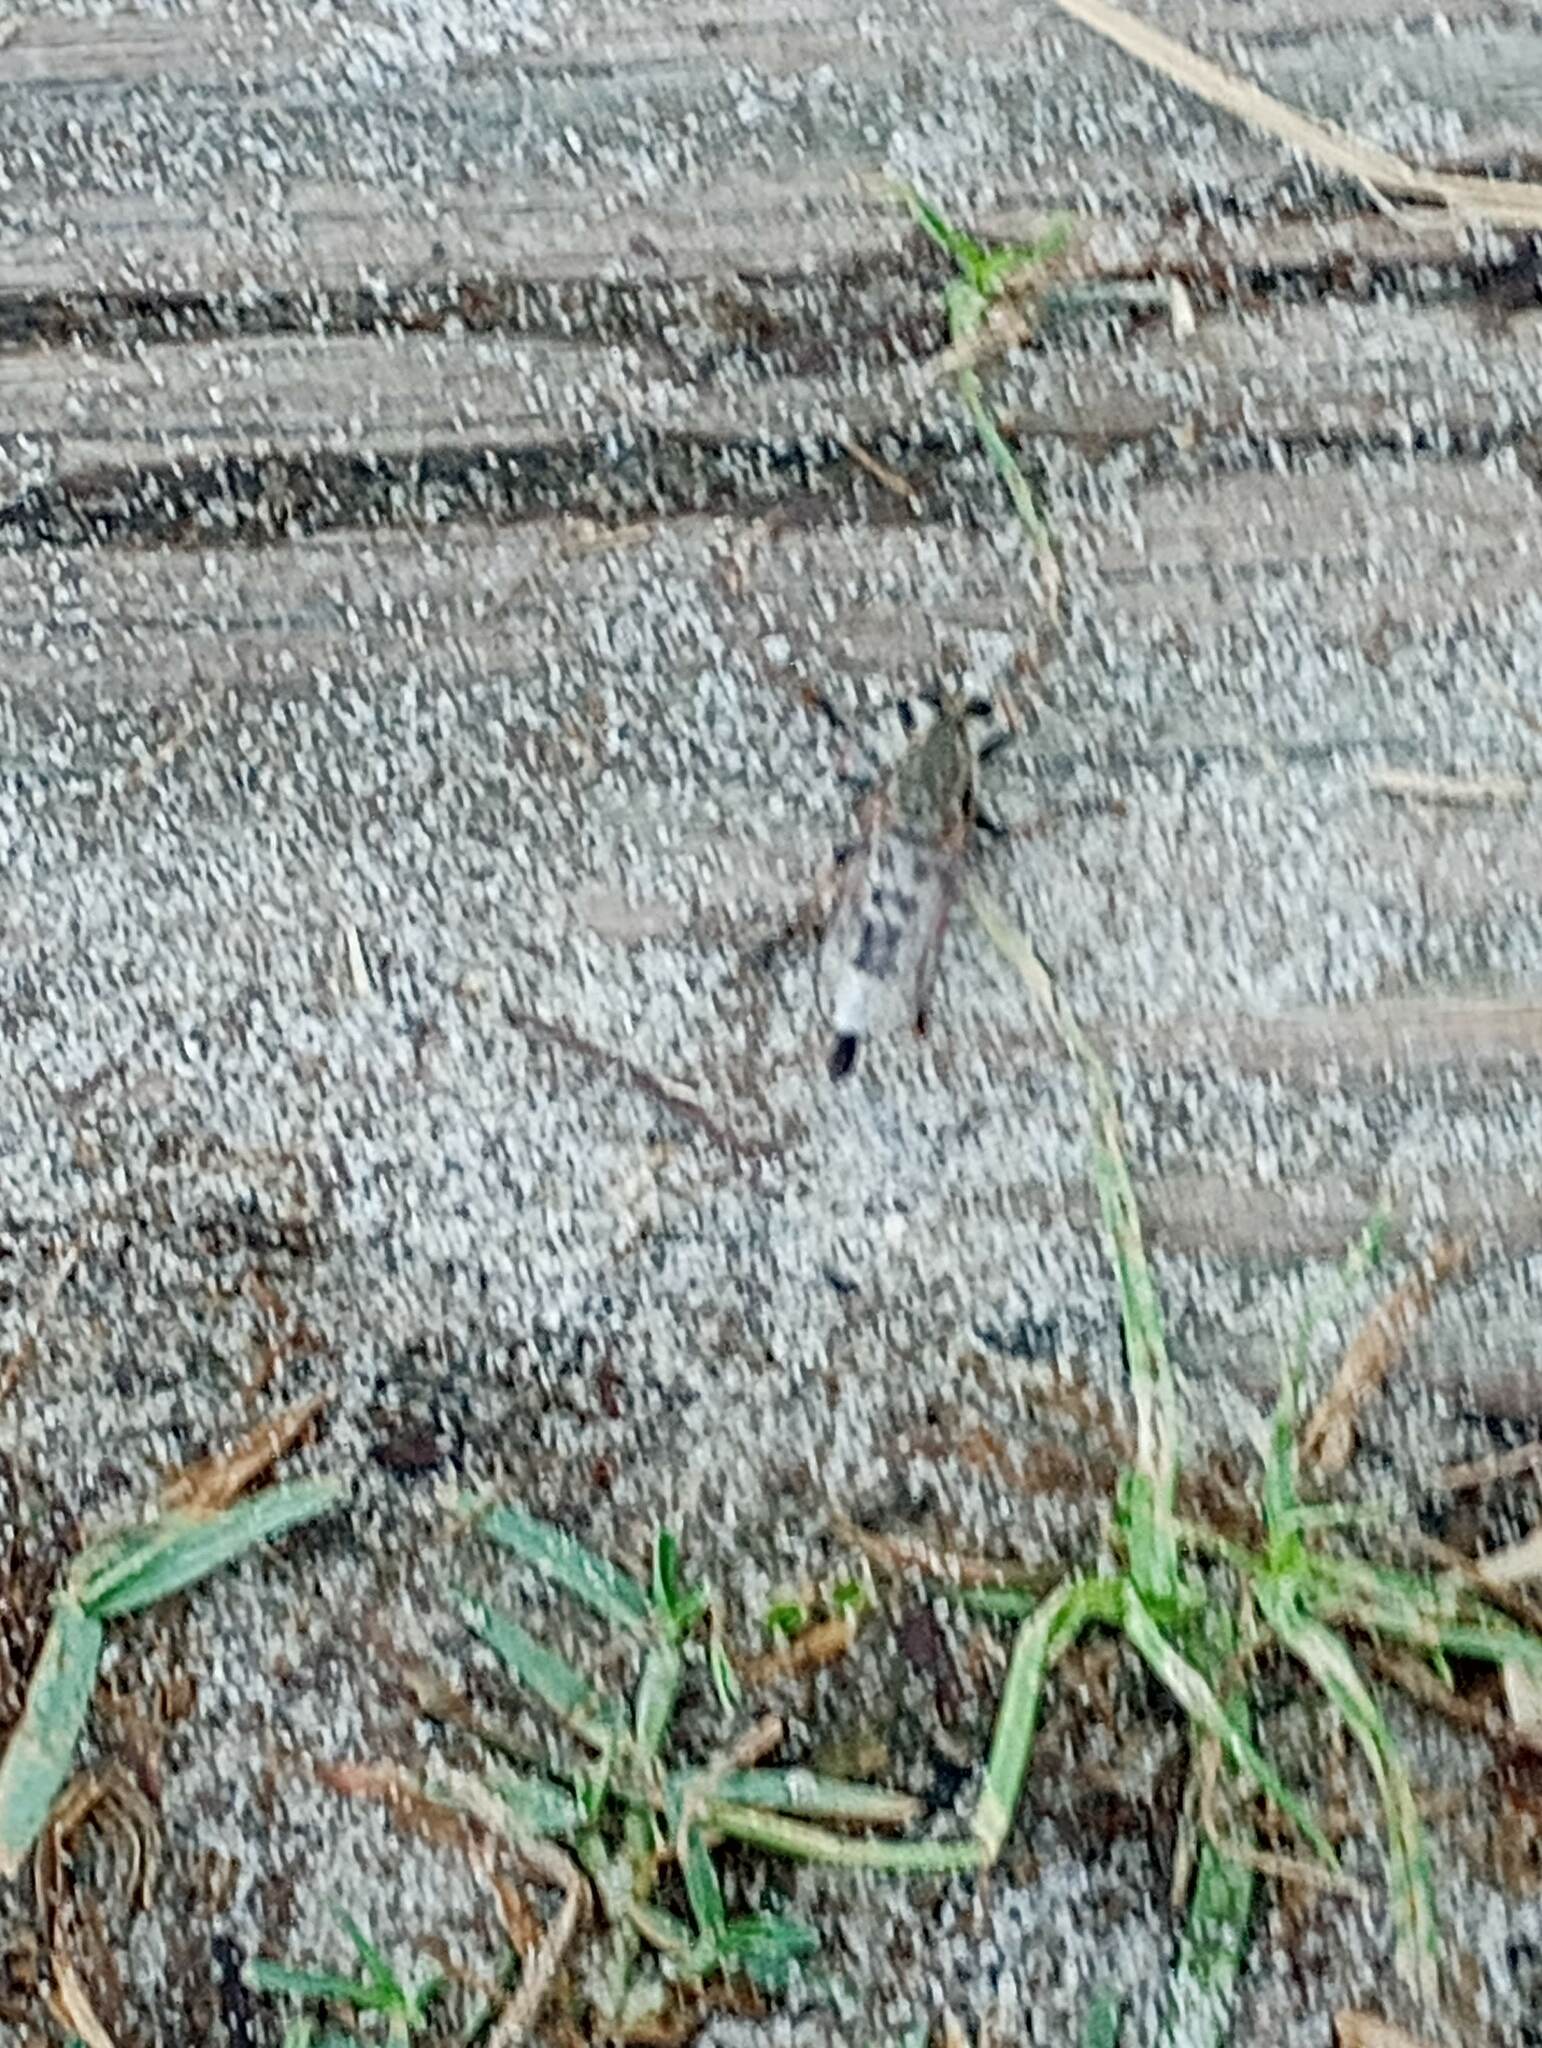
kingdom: Animalia
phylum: Arthropoda
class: Insecta
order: Diptera
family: Asilidae
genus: Efferia
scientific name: Efferia albibarbis
